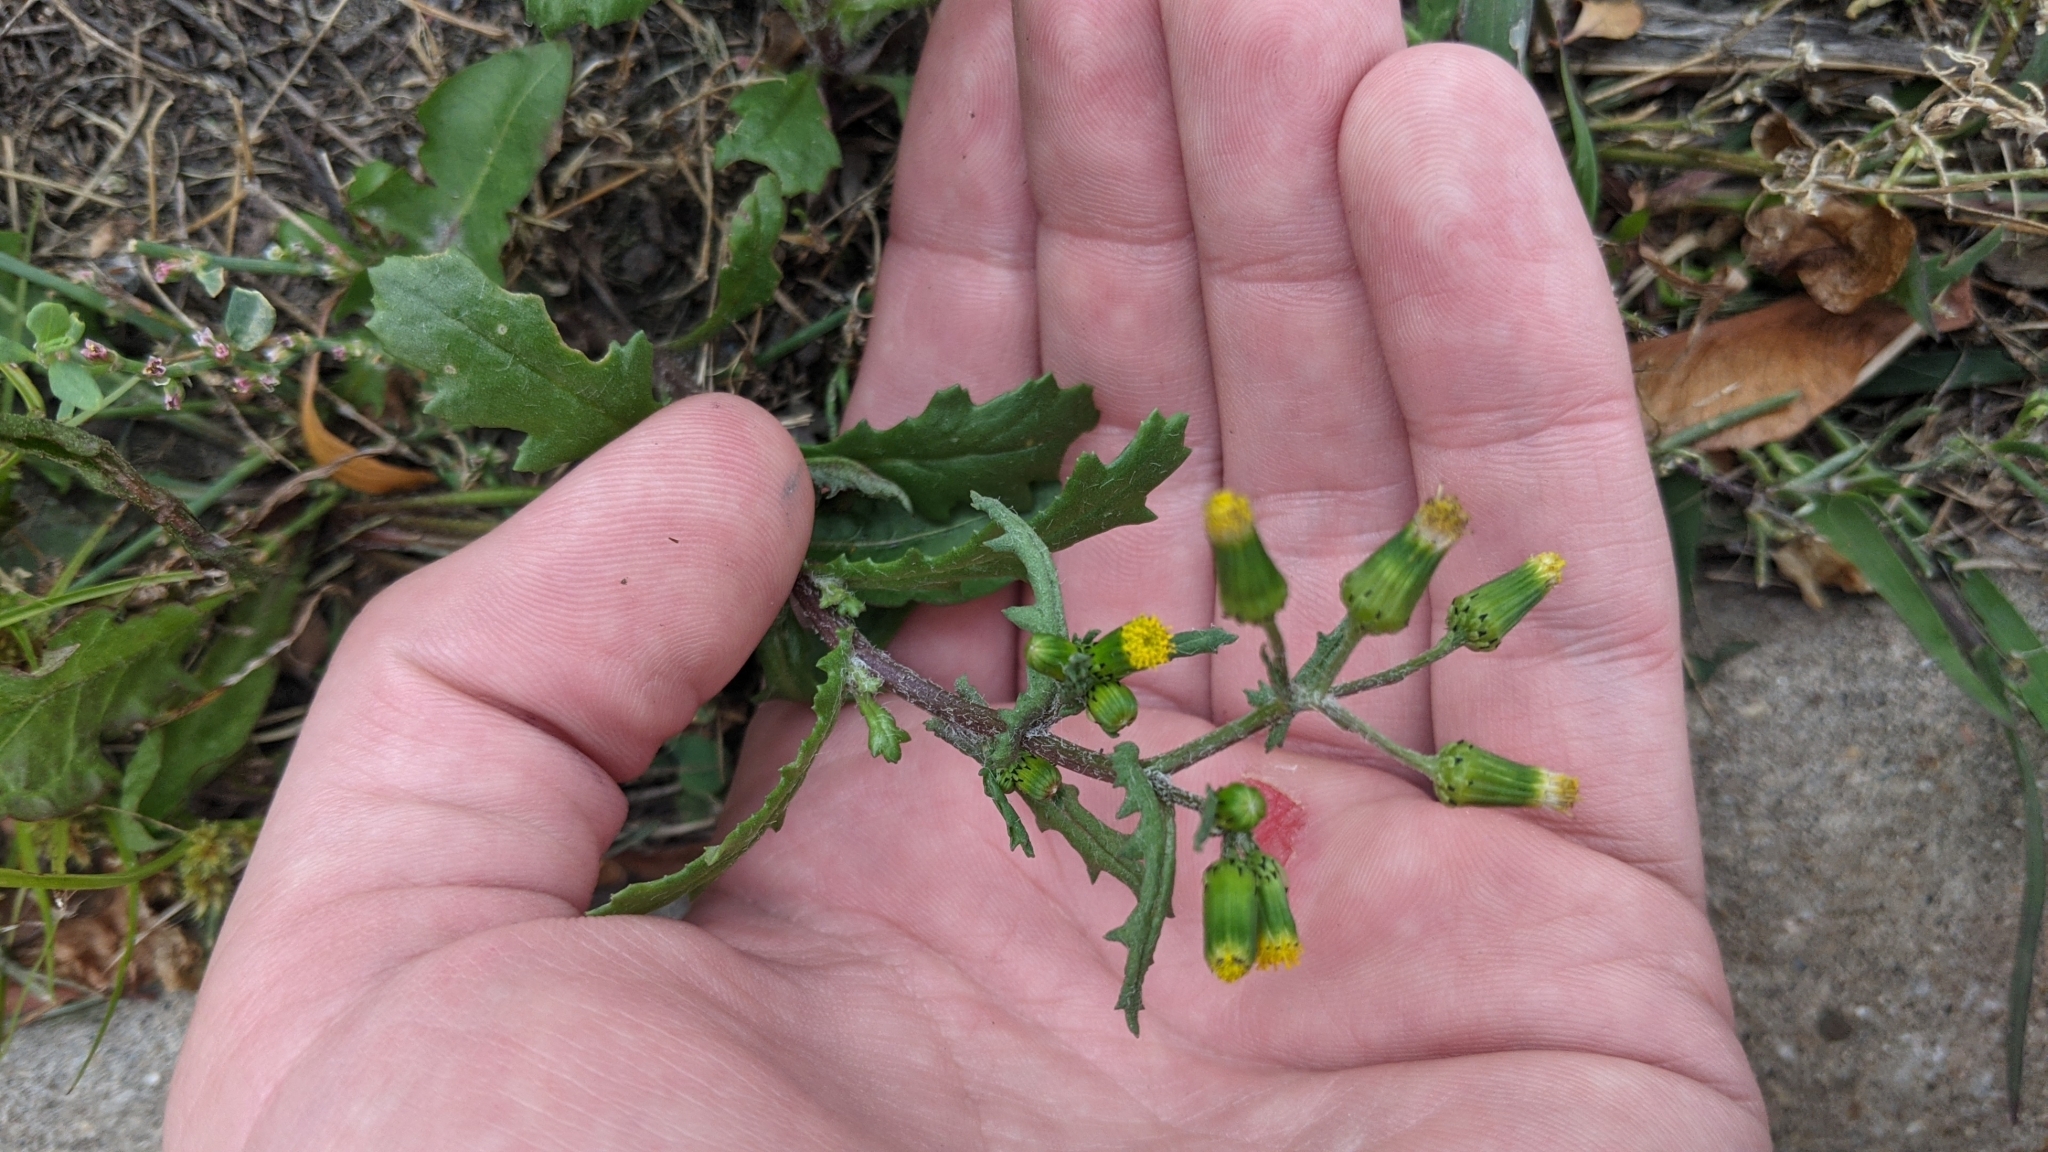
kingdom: Plantae
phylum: Tracheophyta
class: Magnoliopsida
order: Asterales
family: Asteraceae
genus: Senecio
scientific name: Senecio vulgaris
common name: Old-man-in-the-spring
